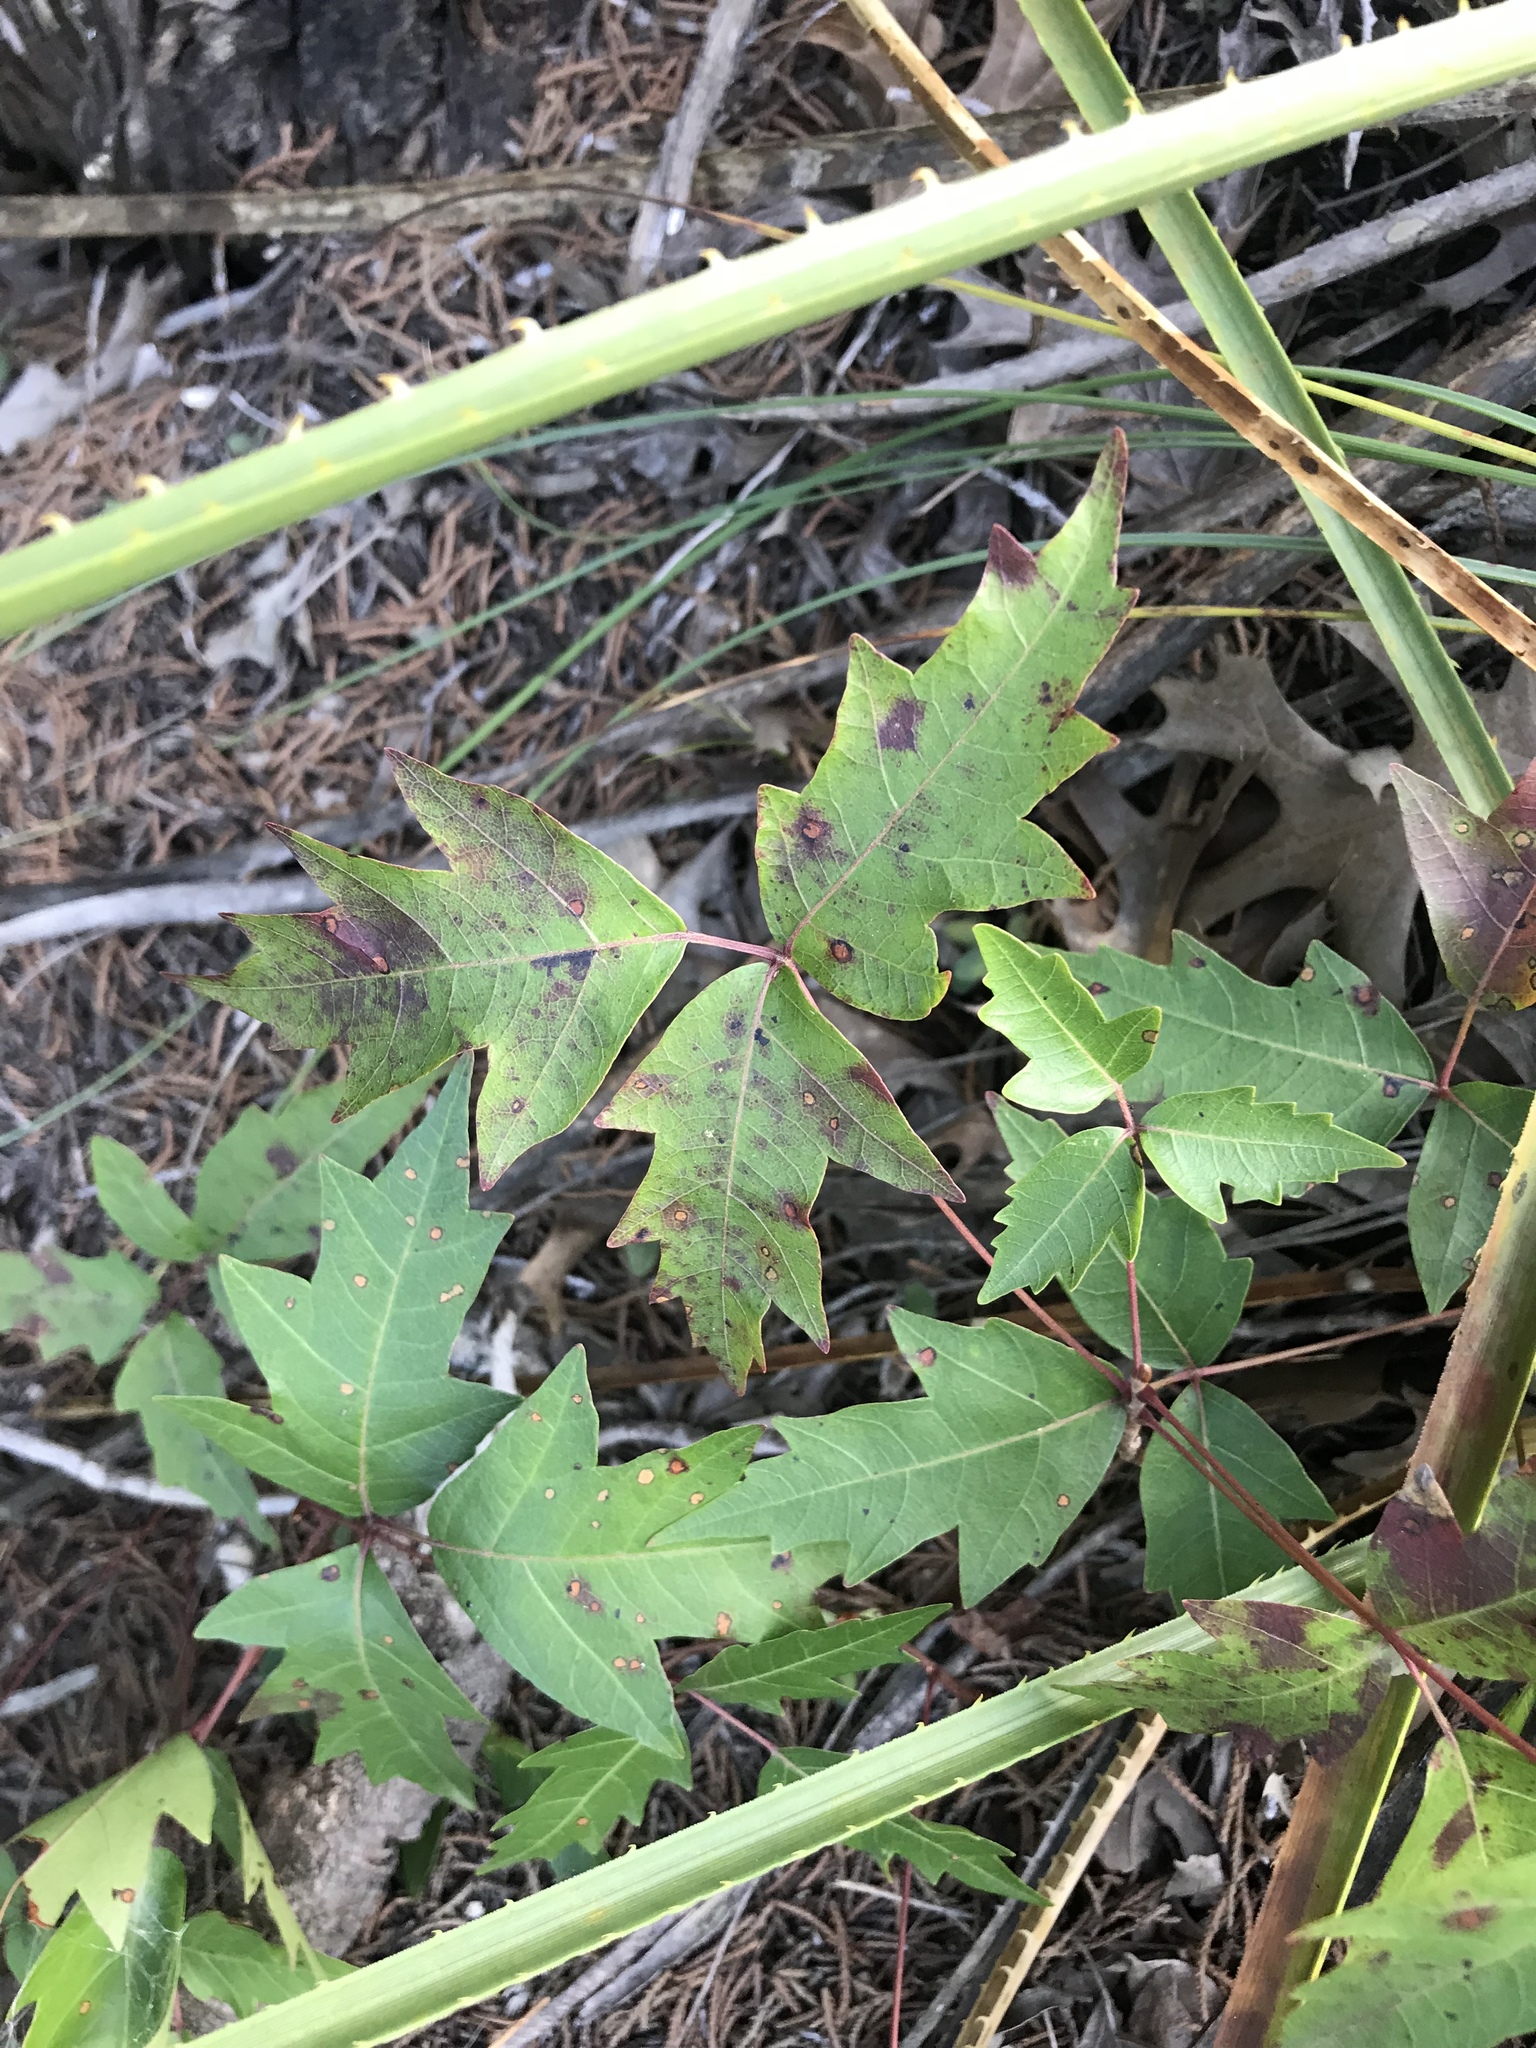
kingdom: Plantae
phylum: Tracheophyta
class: Magnoliopsida
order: Sapindales
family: Anacardiaceae
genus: Toxicodendron
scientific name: Toxicodendron radicans
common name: Poison ivy
